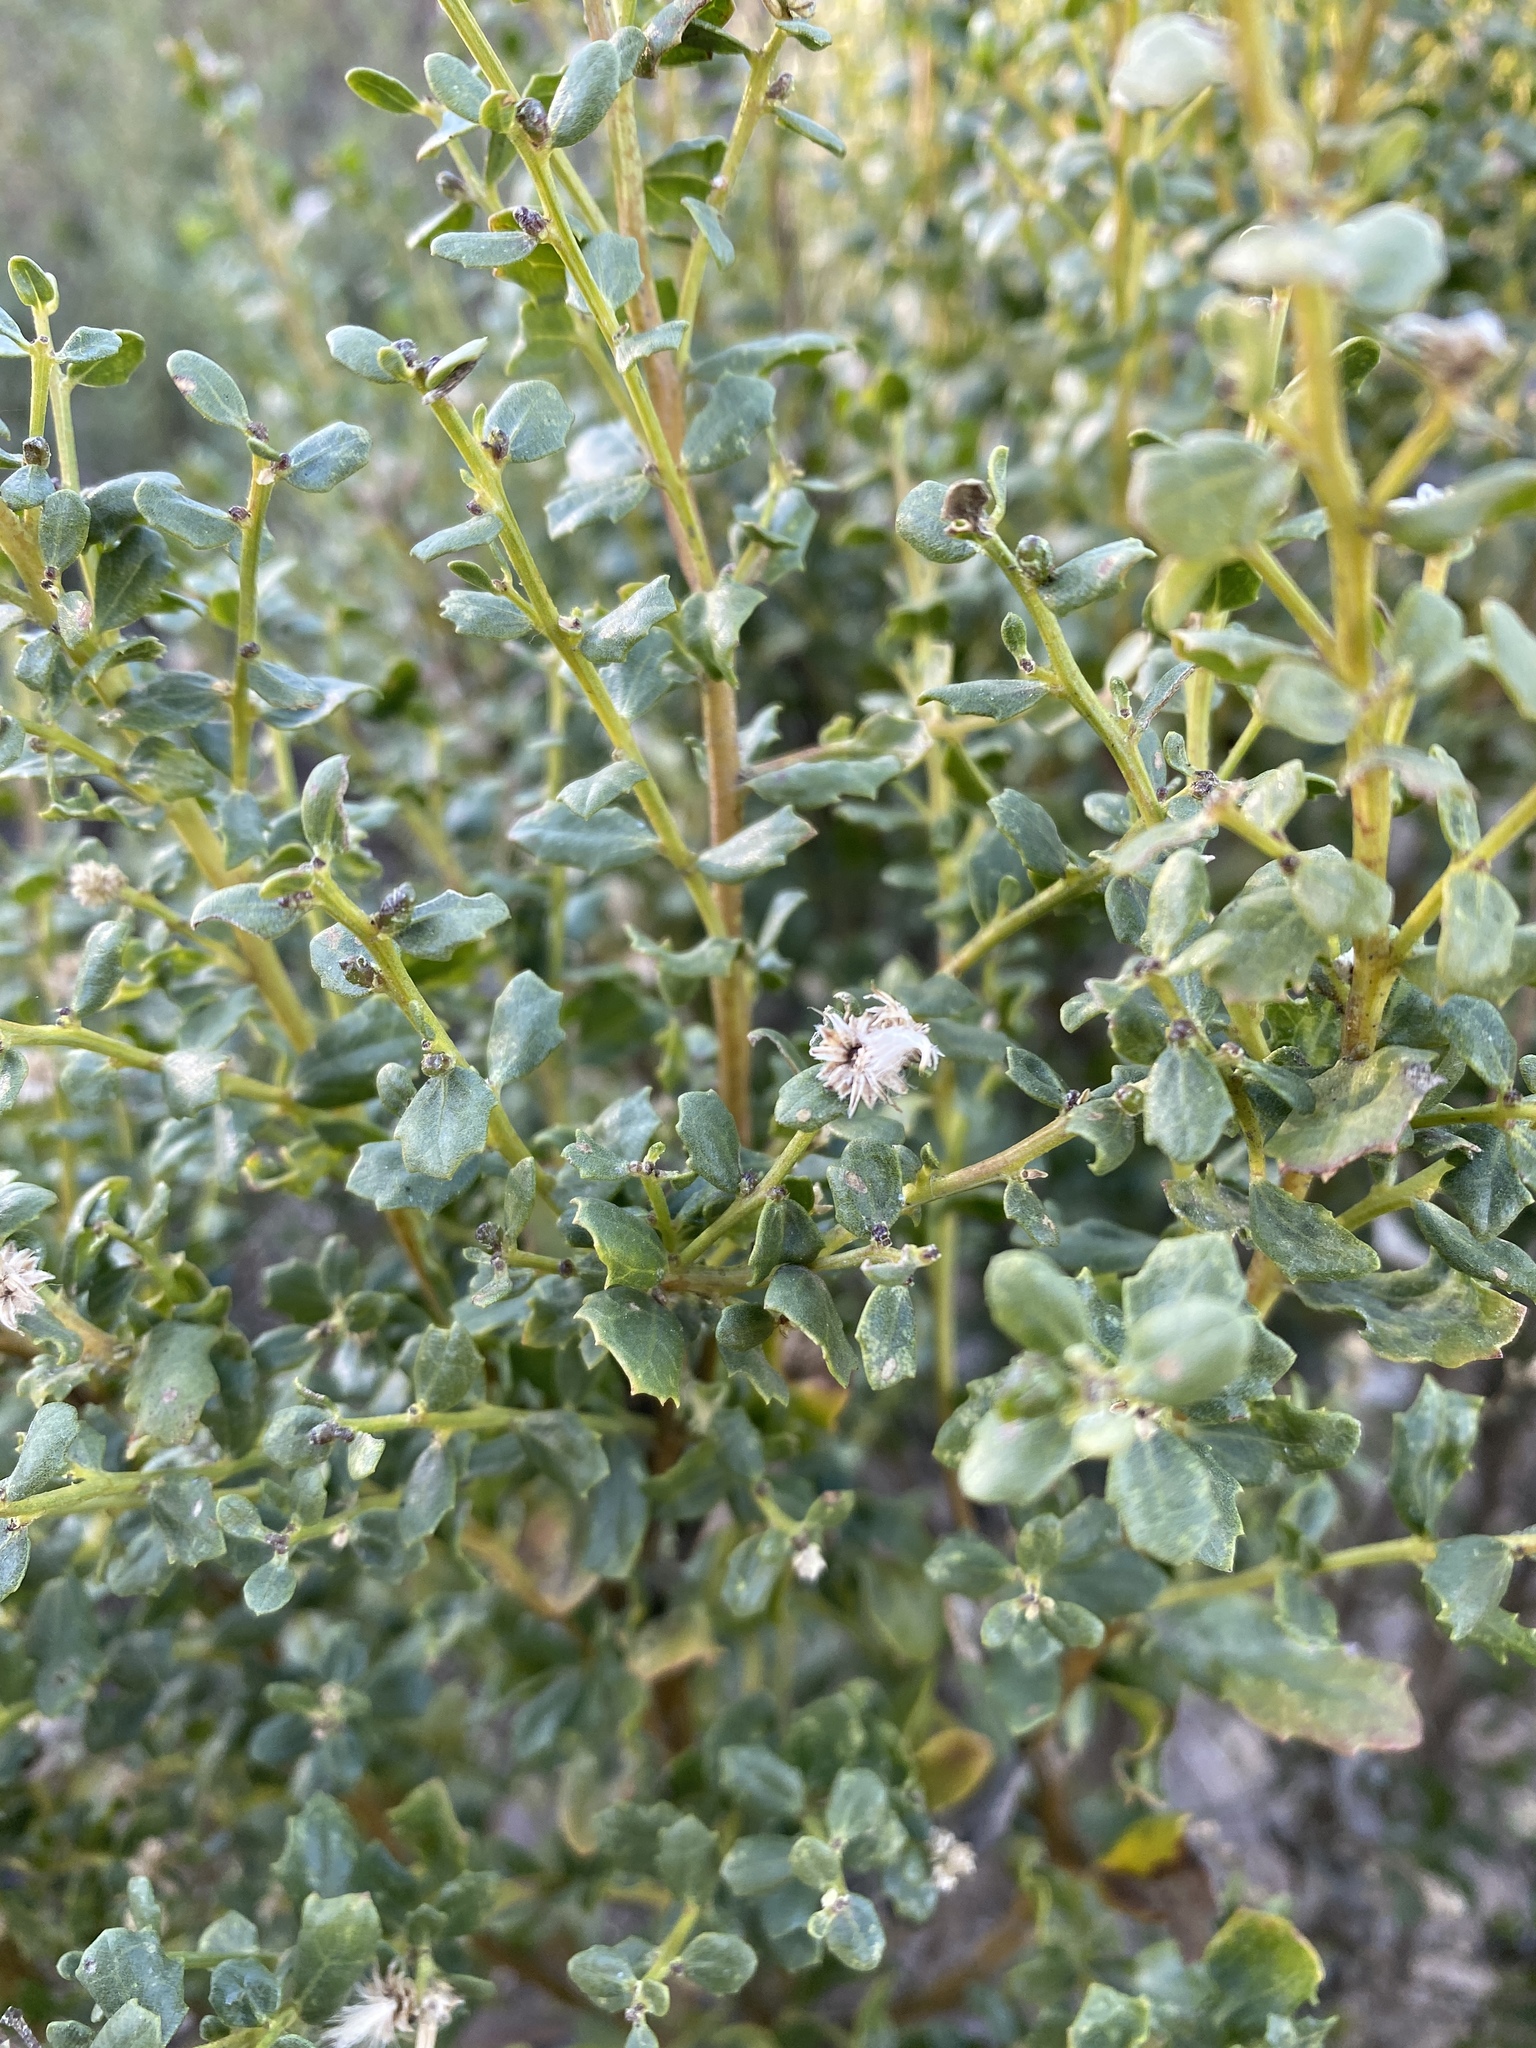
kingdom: Plantae
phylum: Tracheophyta
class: Magnoliopsida
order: Asterales
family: Asteraceae
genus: Baccharis
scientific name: Baccharis pilularis
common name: Coyotebrush
